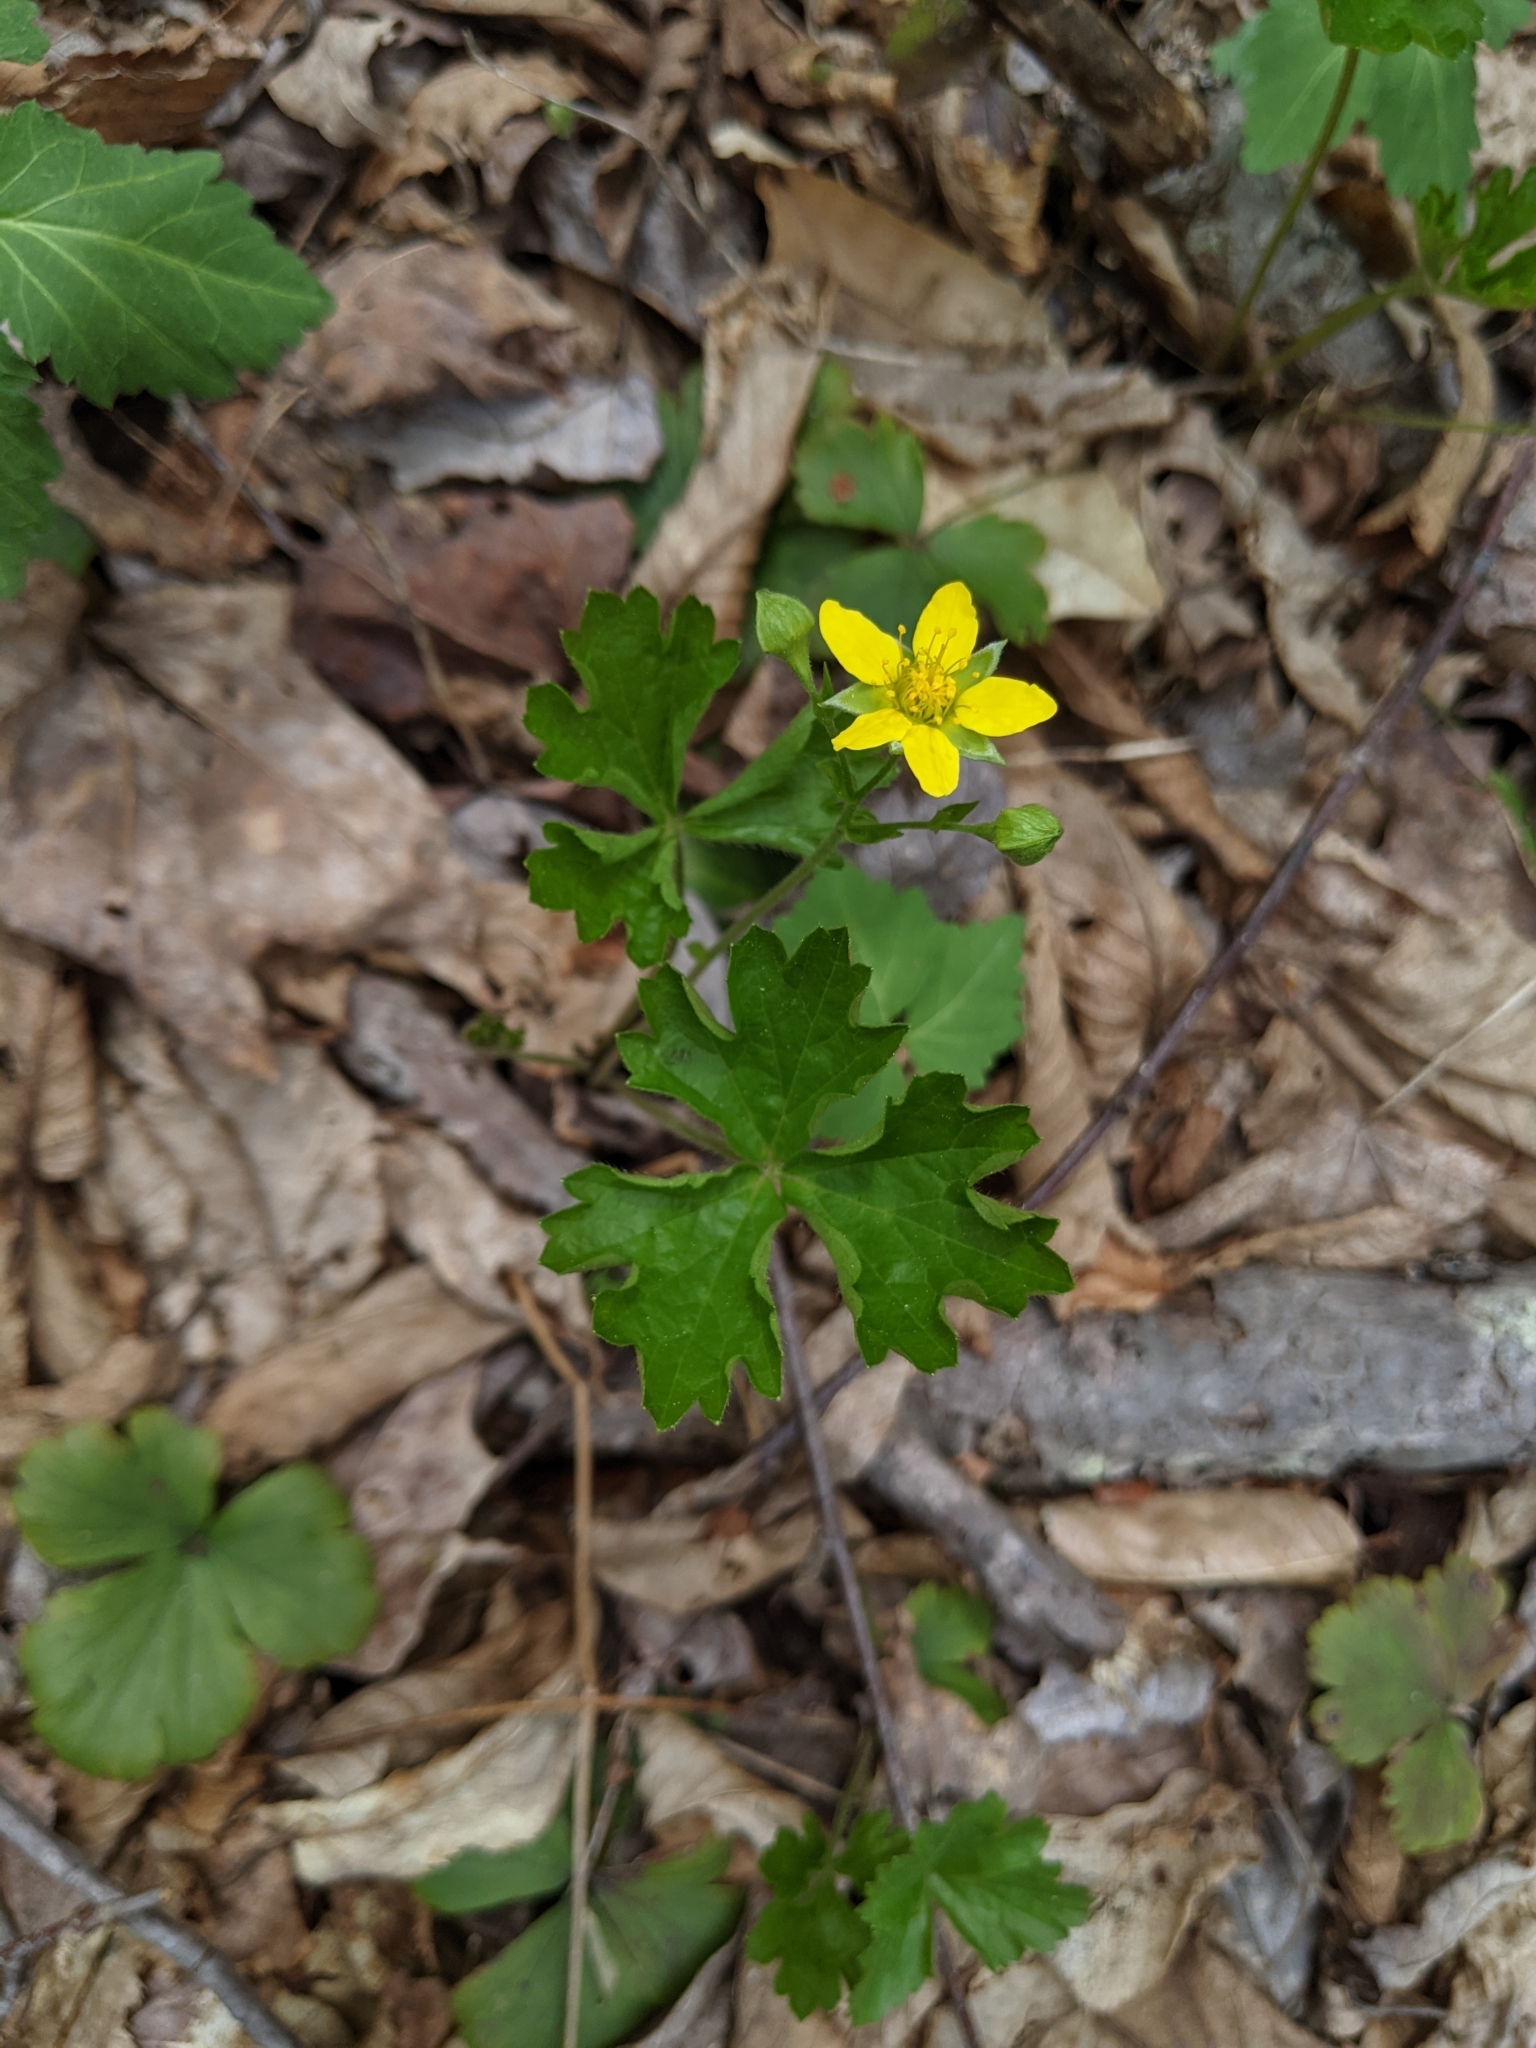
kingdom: Plantae
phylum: Tracheophyta
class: Magnoliopsida
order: Rosales
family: Rosaceae
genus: Geum
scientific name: Geum fragarioides
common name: Appalachian barren strawberry
